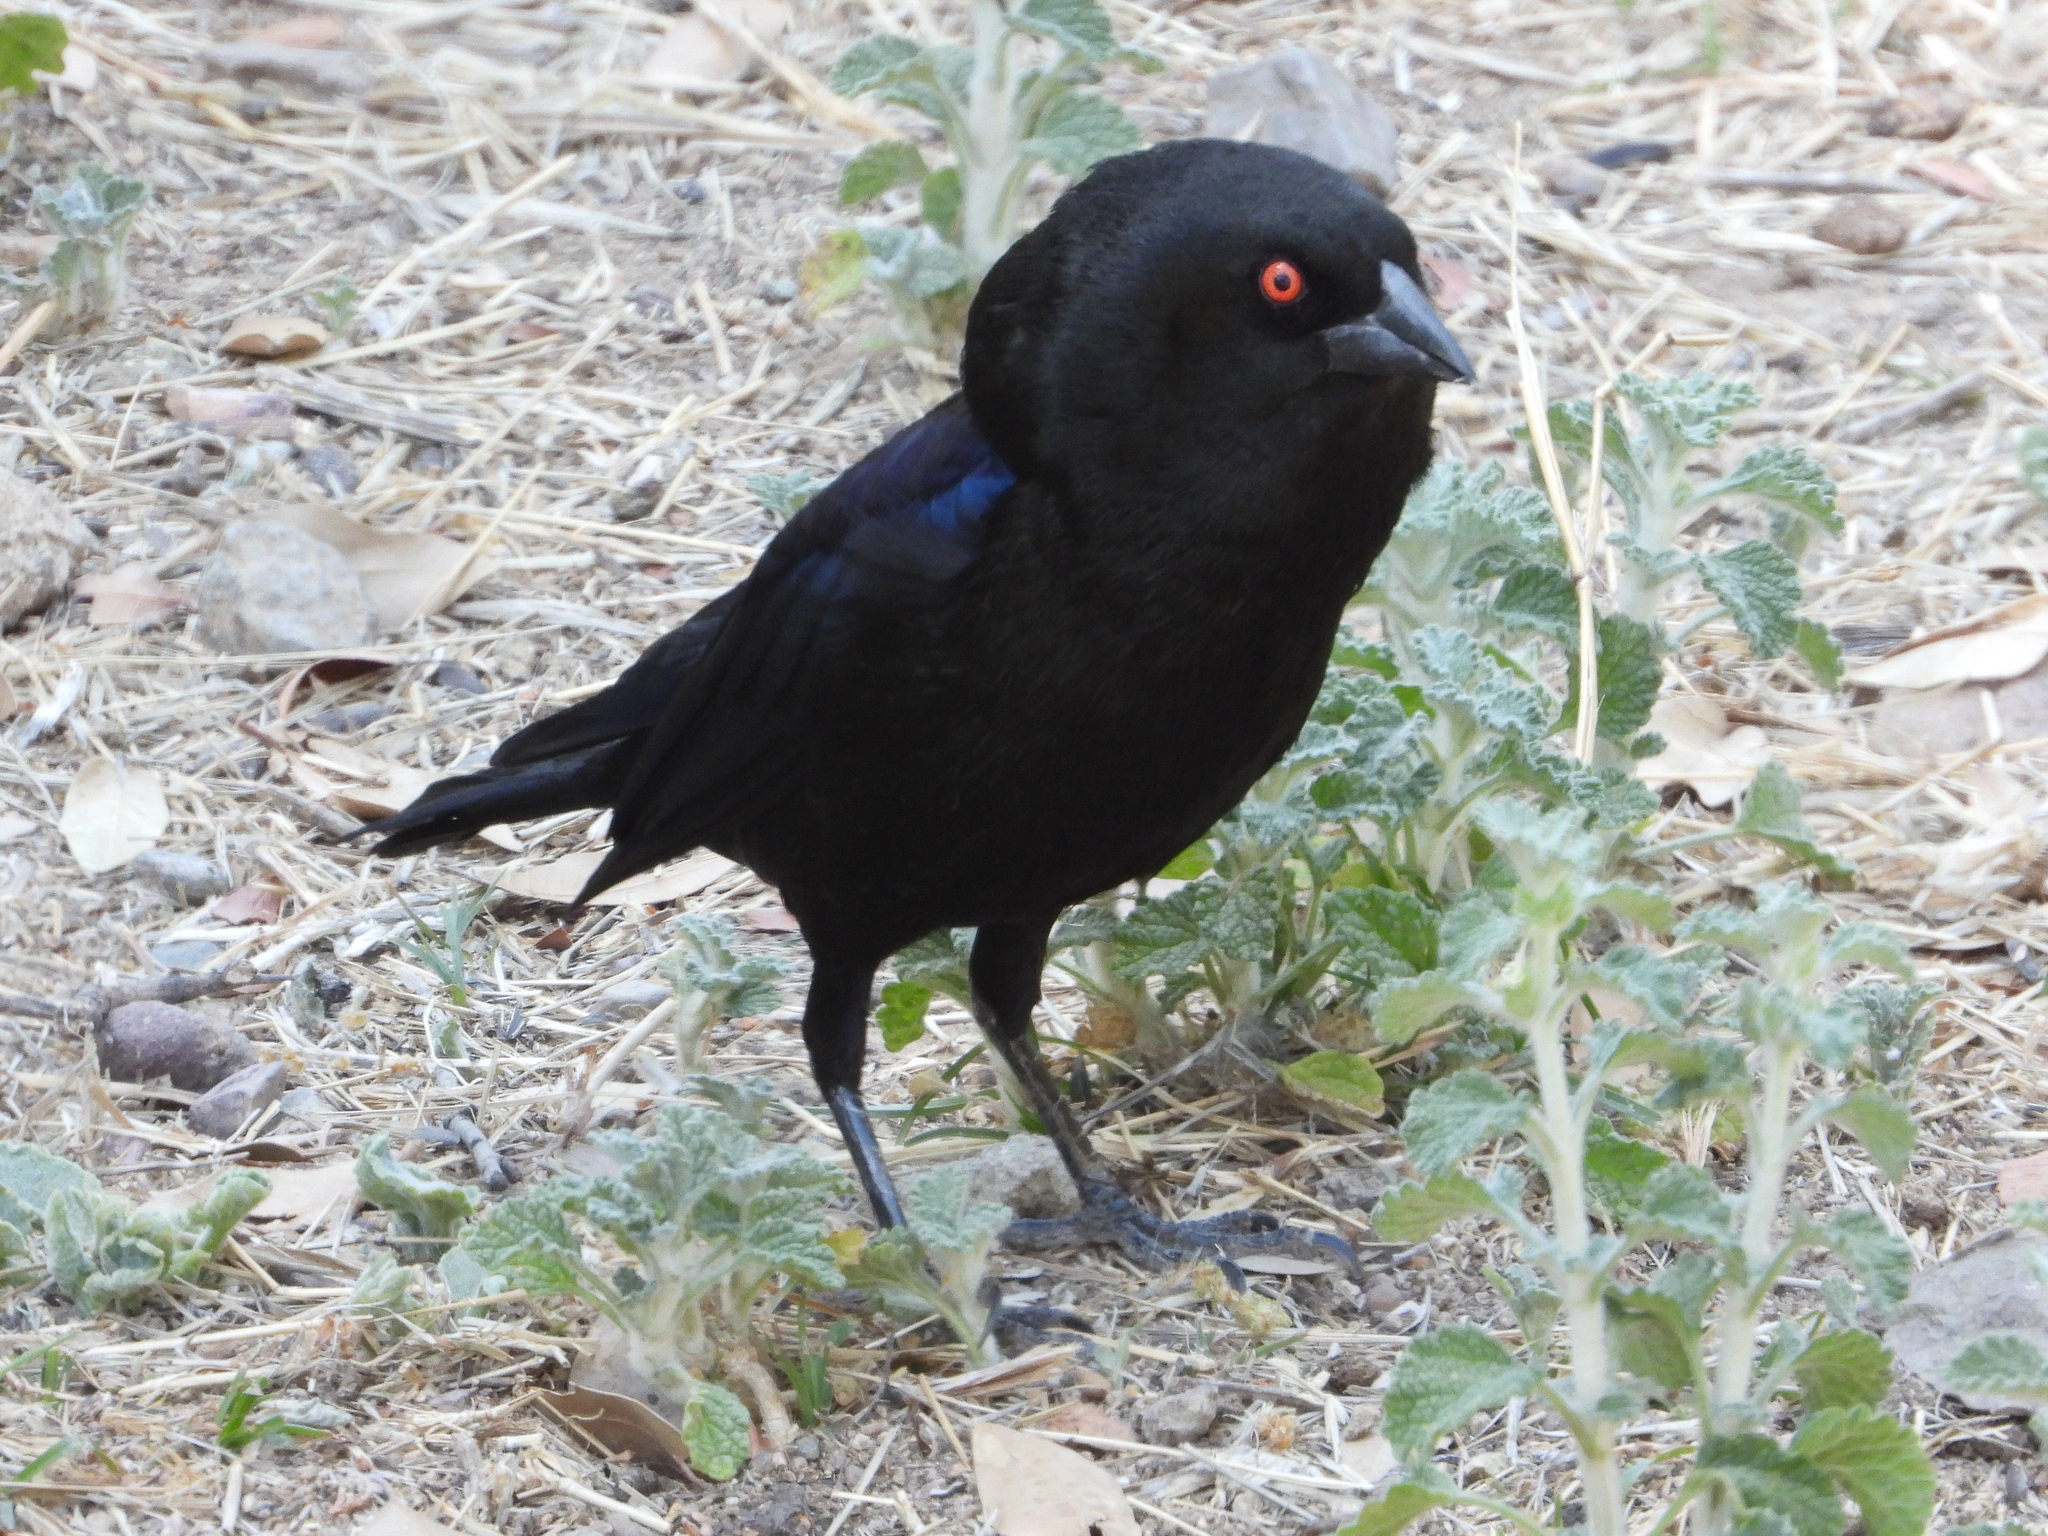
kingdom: Animalia
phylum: Chordata
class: Aves
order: Passeriformes
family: Icteridae
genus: Molothrus
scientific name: Molothrus aeneus
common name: Bronzed cowbird
